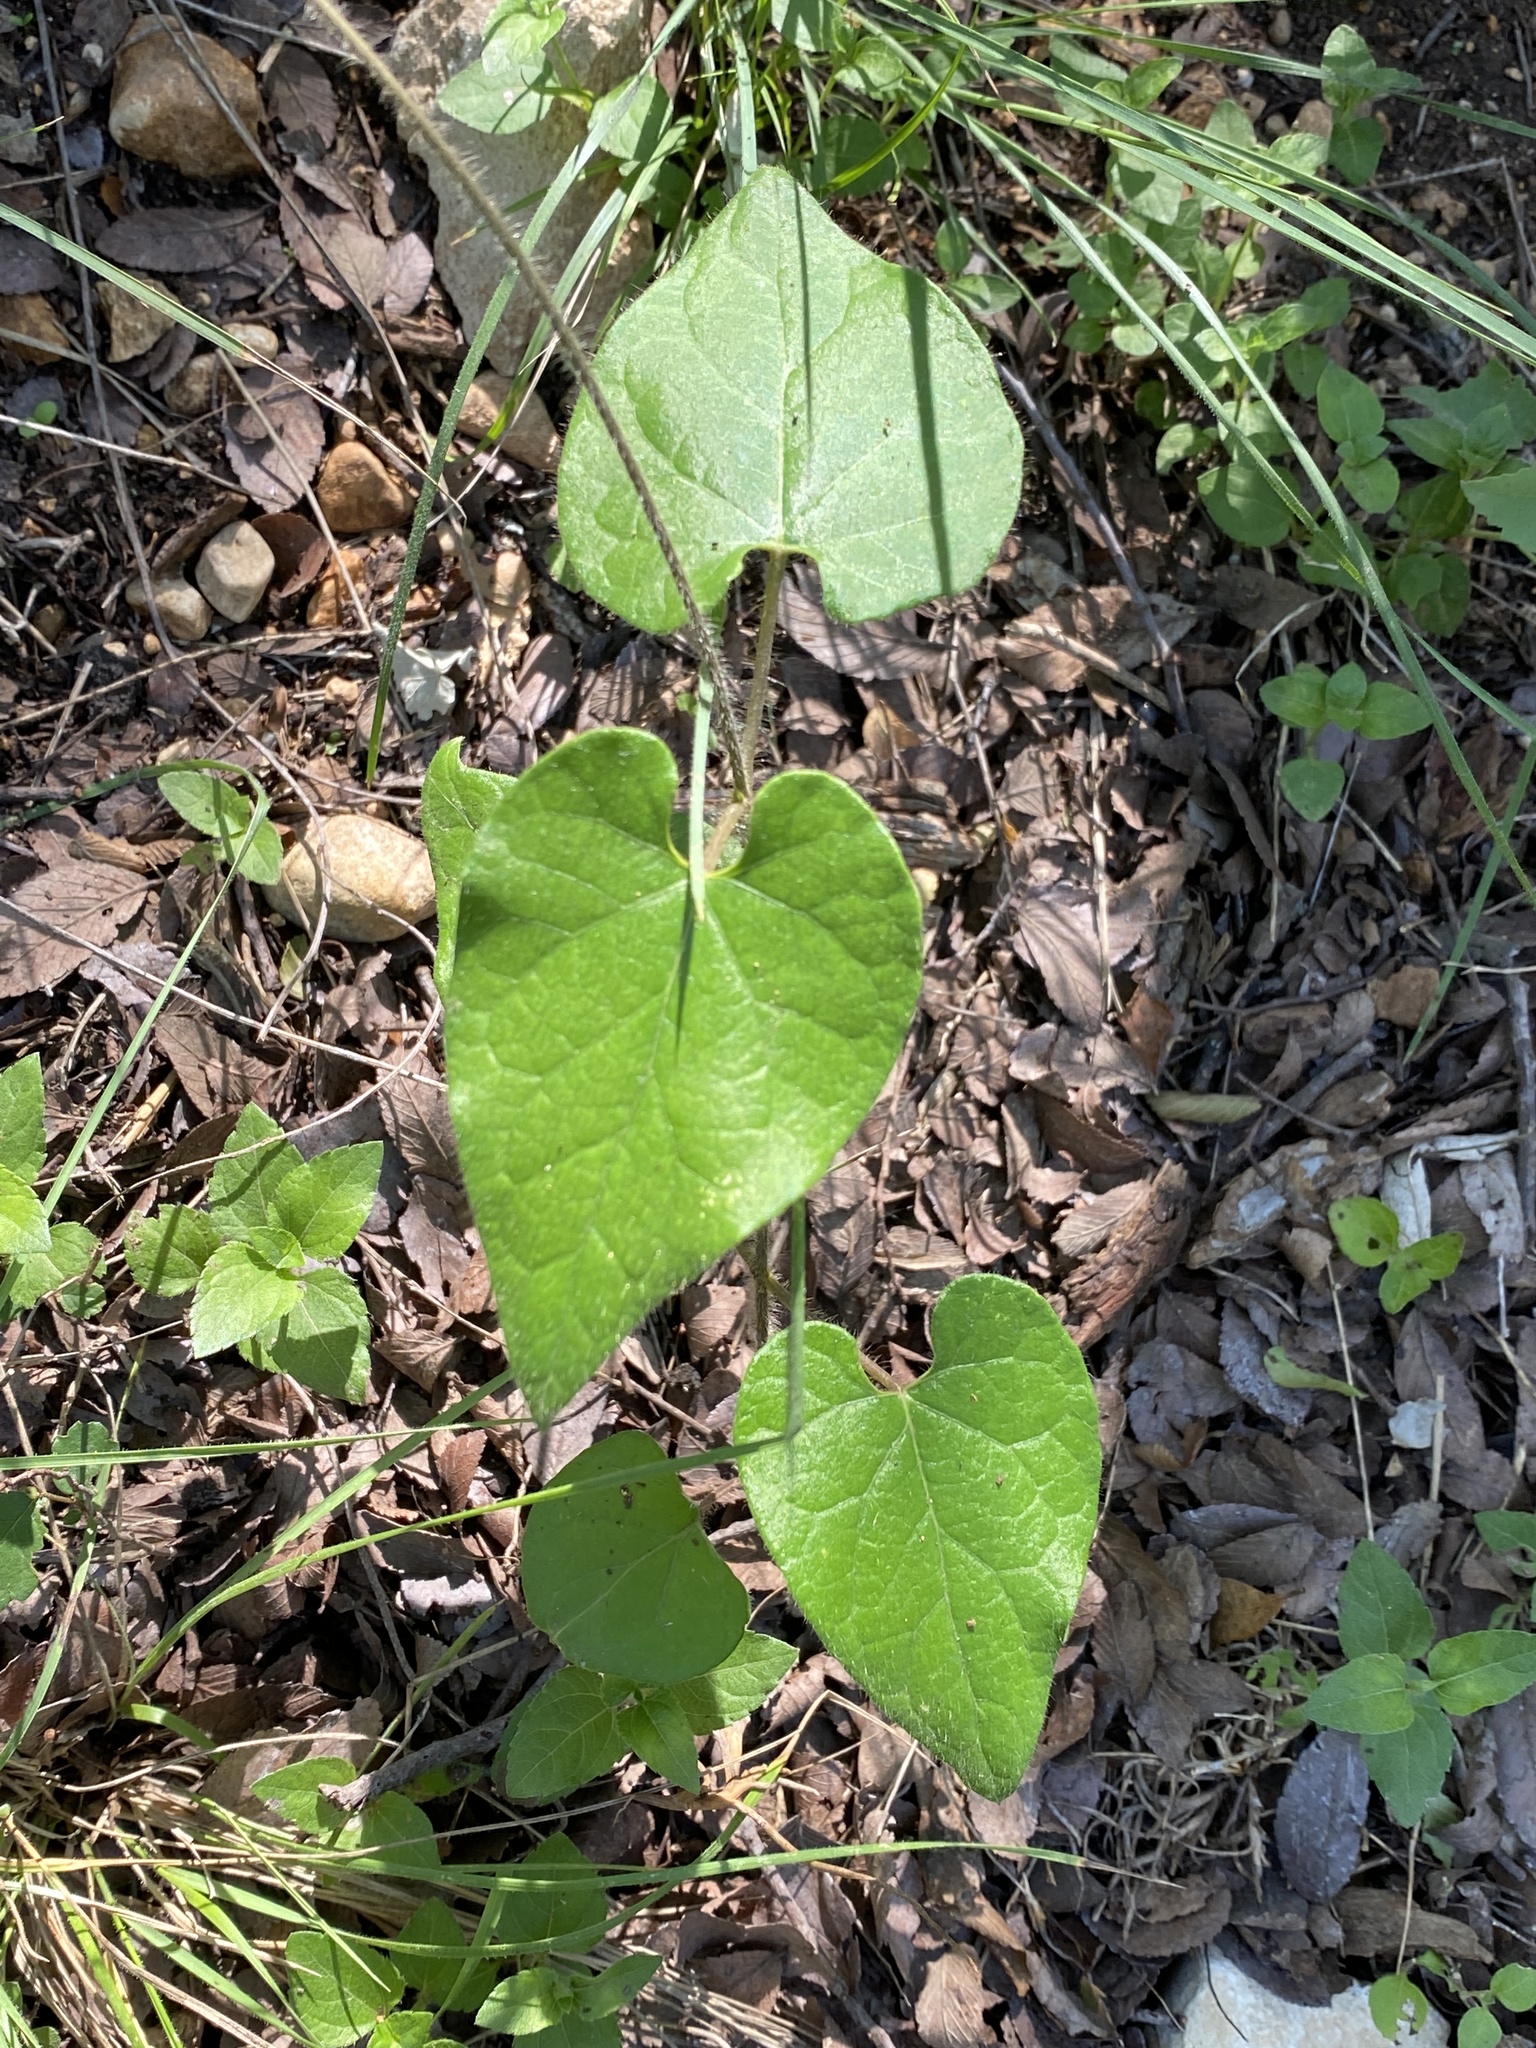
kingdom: Plantae
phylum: Tracheophyta
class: Magnoliopsida
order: Gentianales
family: Apocynaceae
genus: Dictyanthus
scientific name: Dictyanthus reticulatus
